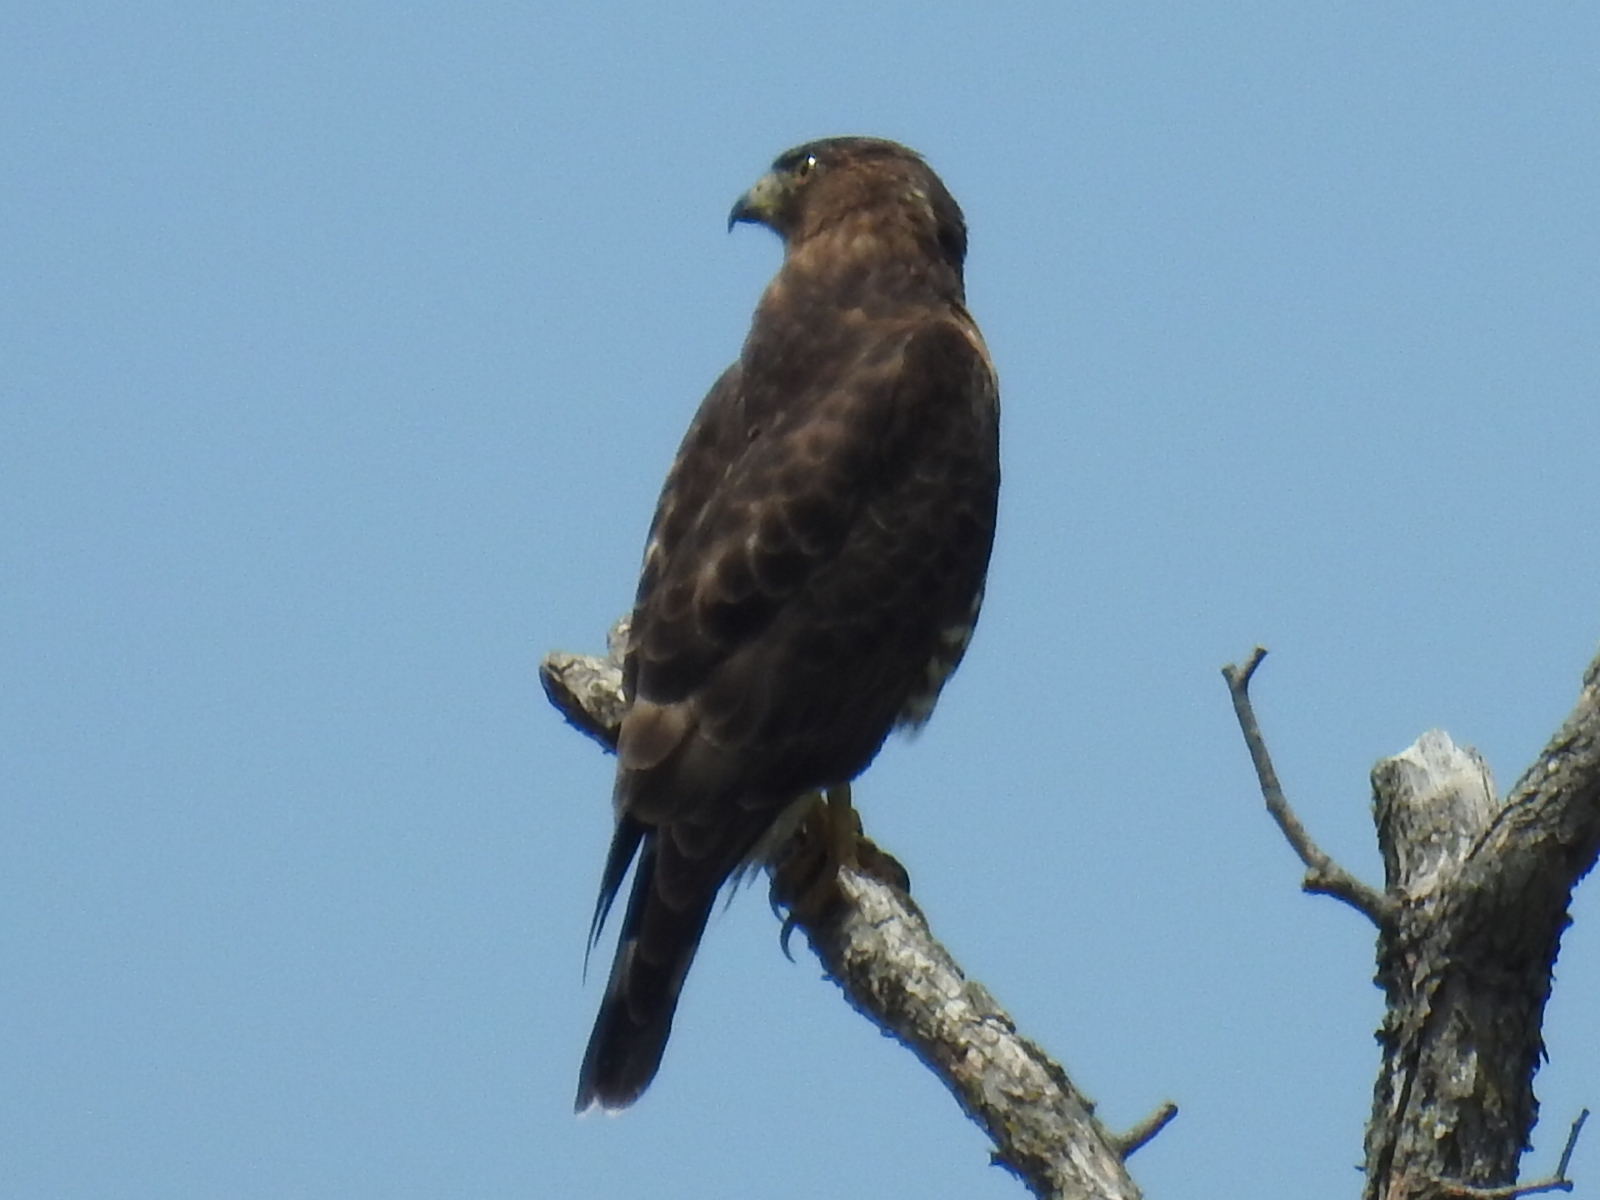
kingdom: Animalia
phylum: Chordata
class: Aves
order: Accipitriformes
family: Accipitridae
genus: Buteo
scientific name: Buteo platypterus
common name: Broad-winged hawk
